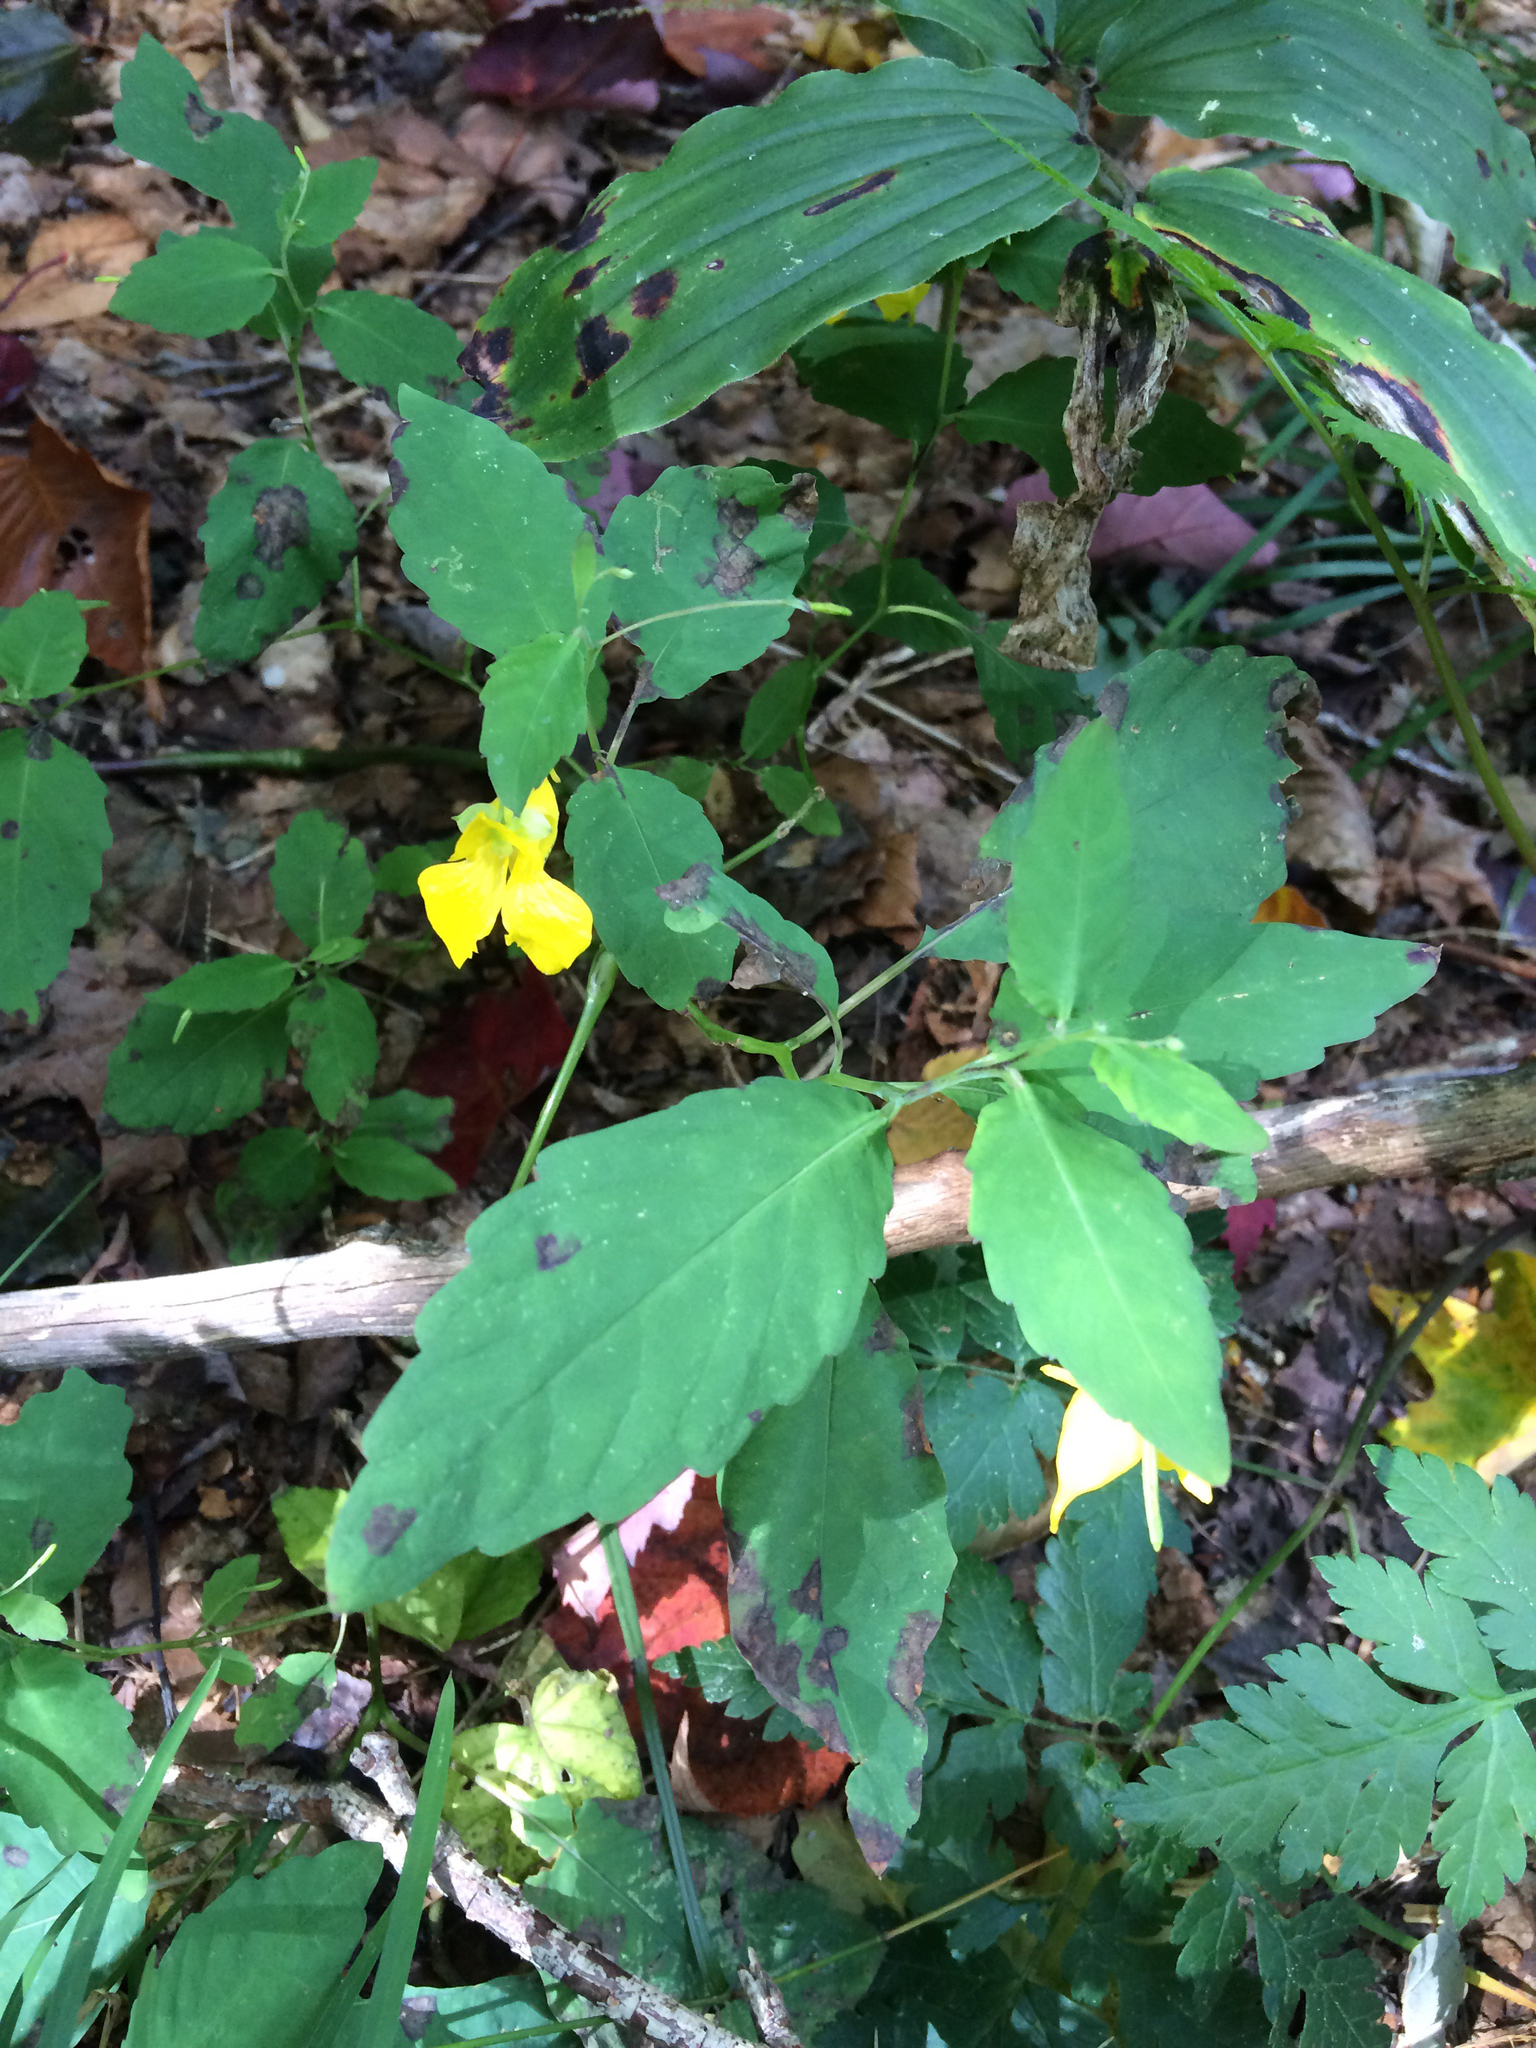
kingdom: Plantae
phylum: Tracheophyta
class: Magnoliopsida
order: Ericales
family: Balsaminaceae
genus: Impatiens
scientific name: Impatiens pallida
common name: Pale snapweed
